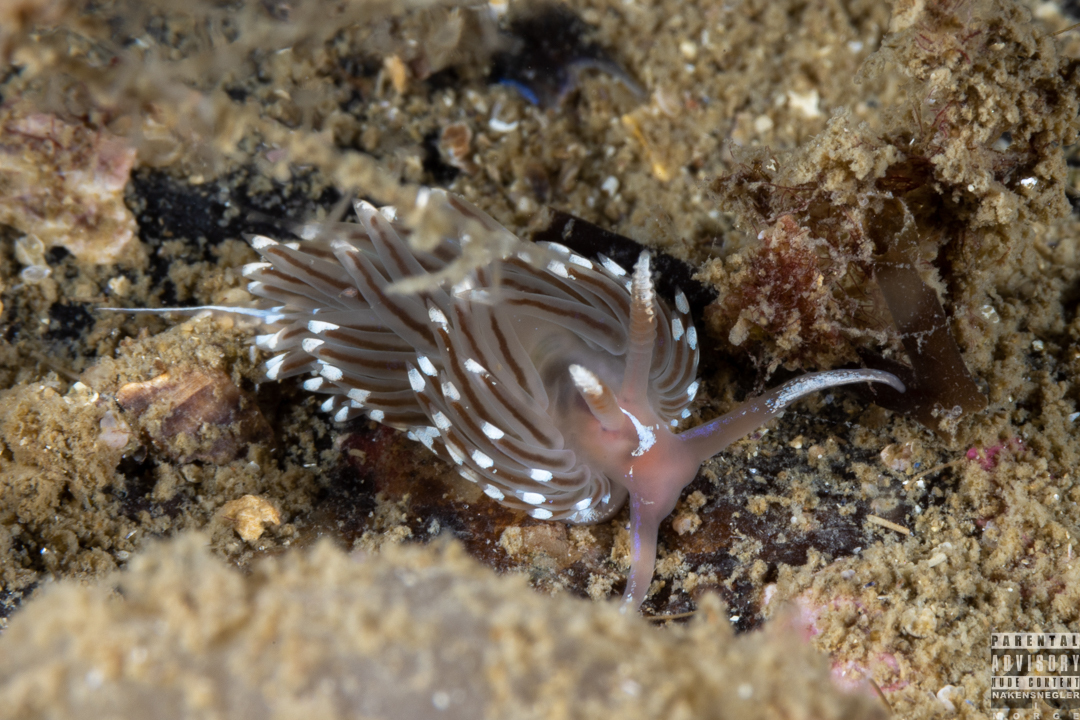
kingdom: Animalia
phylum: Mollusca
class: Gastropoda
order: Nudibranchia
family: Facelinidae
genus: Facelina
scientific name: Facelina bostoniensis
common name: Boston facelina
